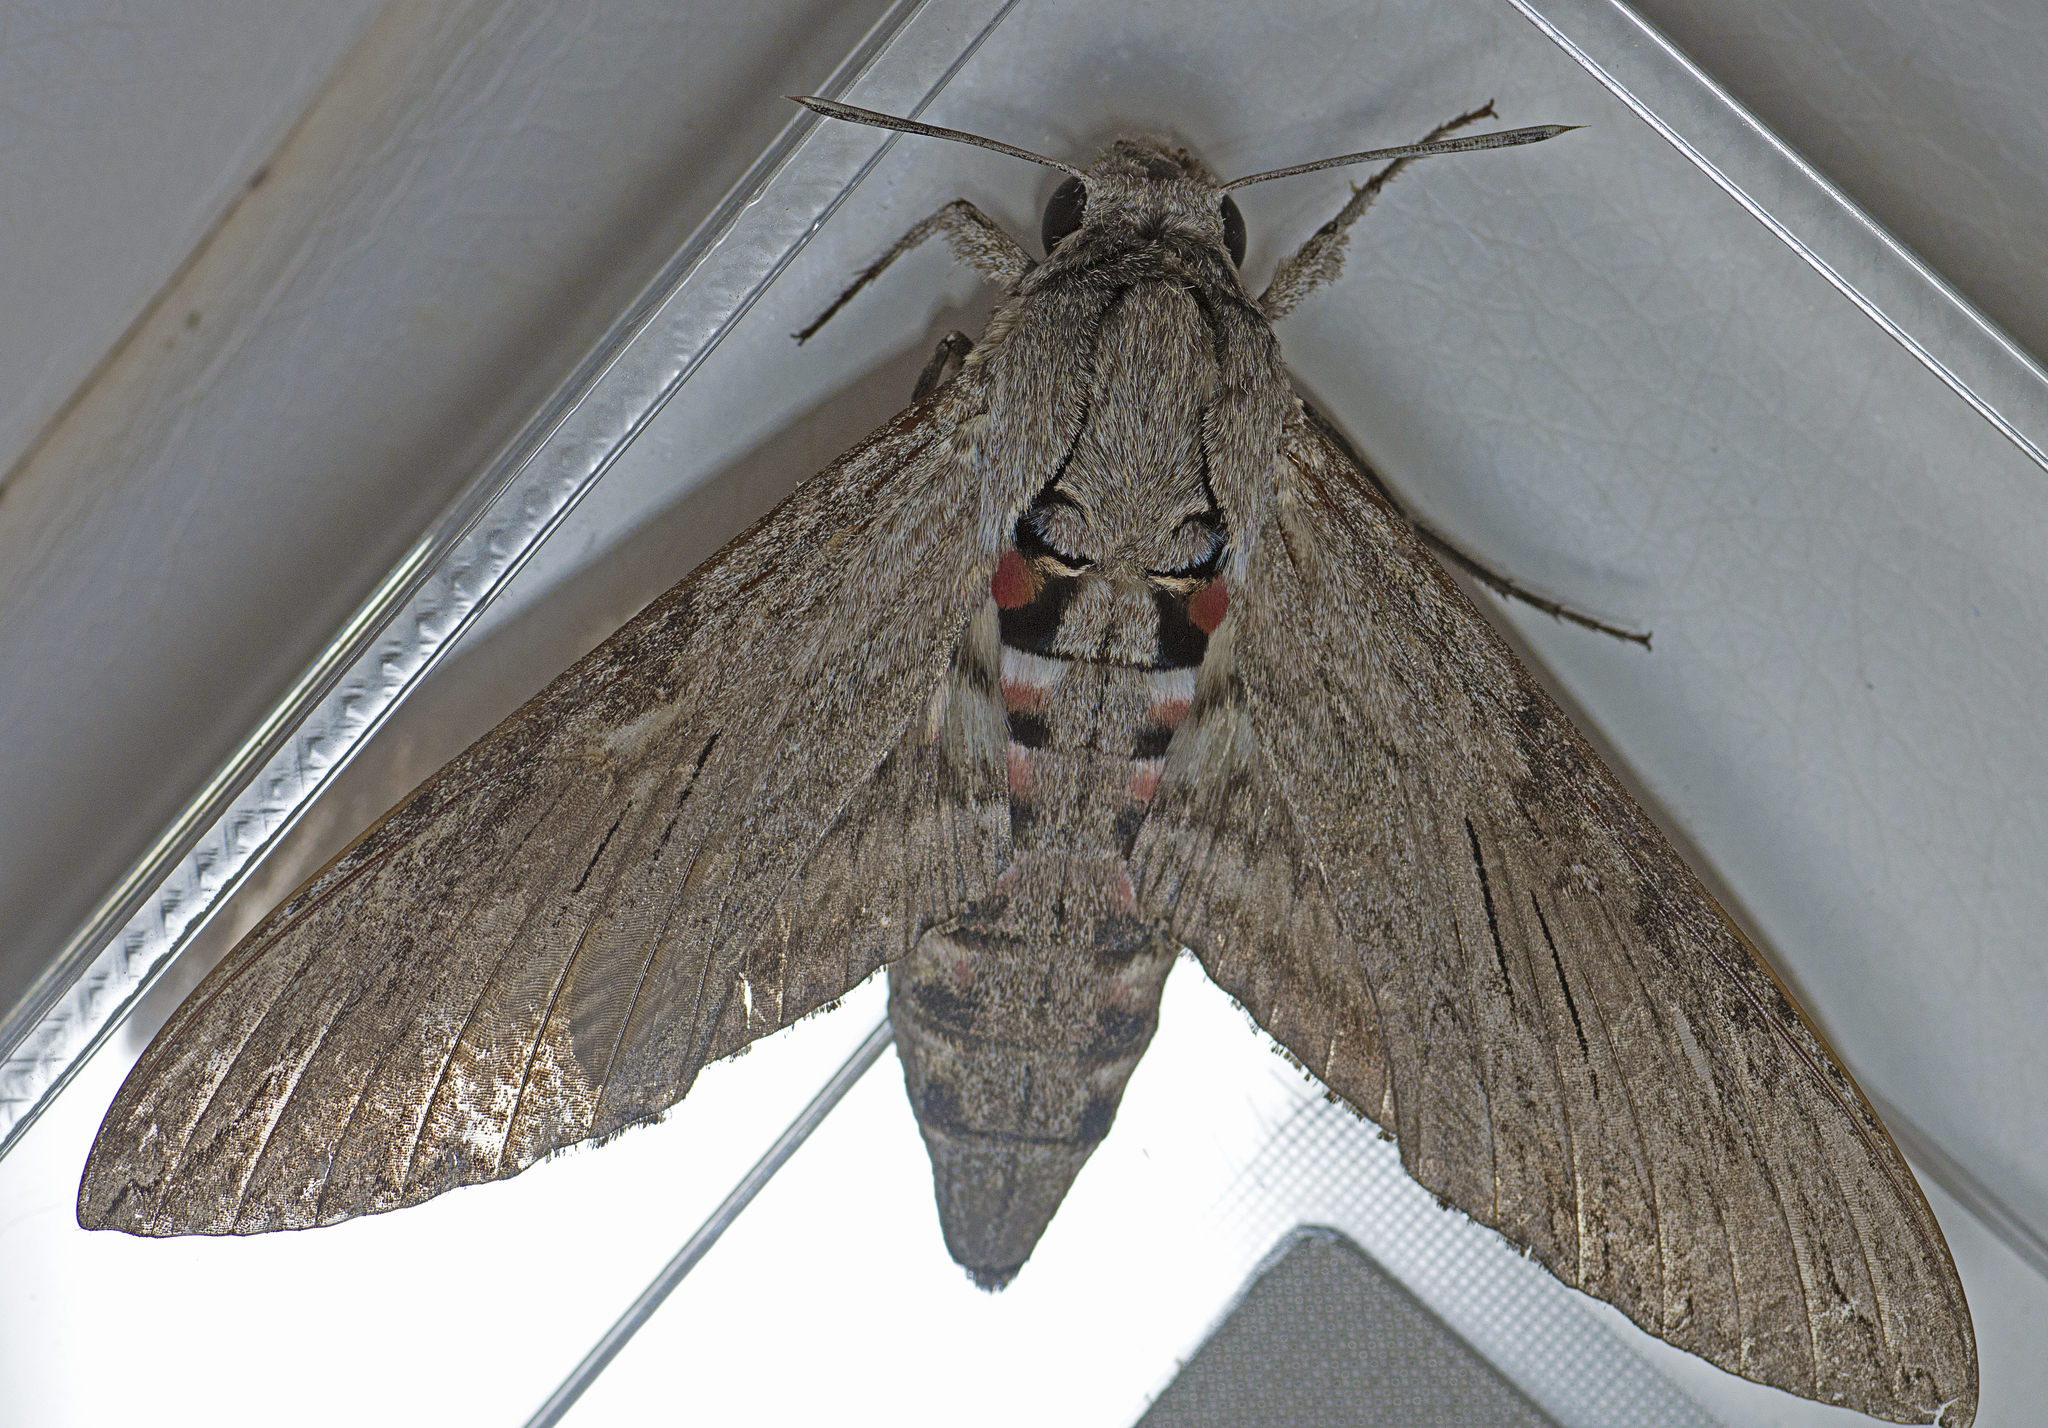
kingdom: Animalia
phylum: Arthropoda
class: Insecta
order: Lepidoptera
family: Sphingidae
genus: Agrius
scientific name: Agrius convolvuli
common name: Convolvulus hawkmoth
